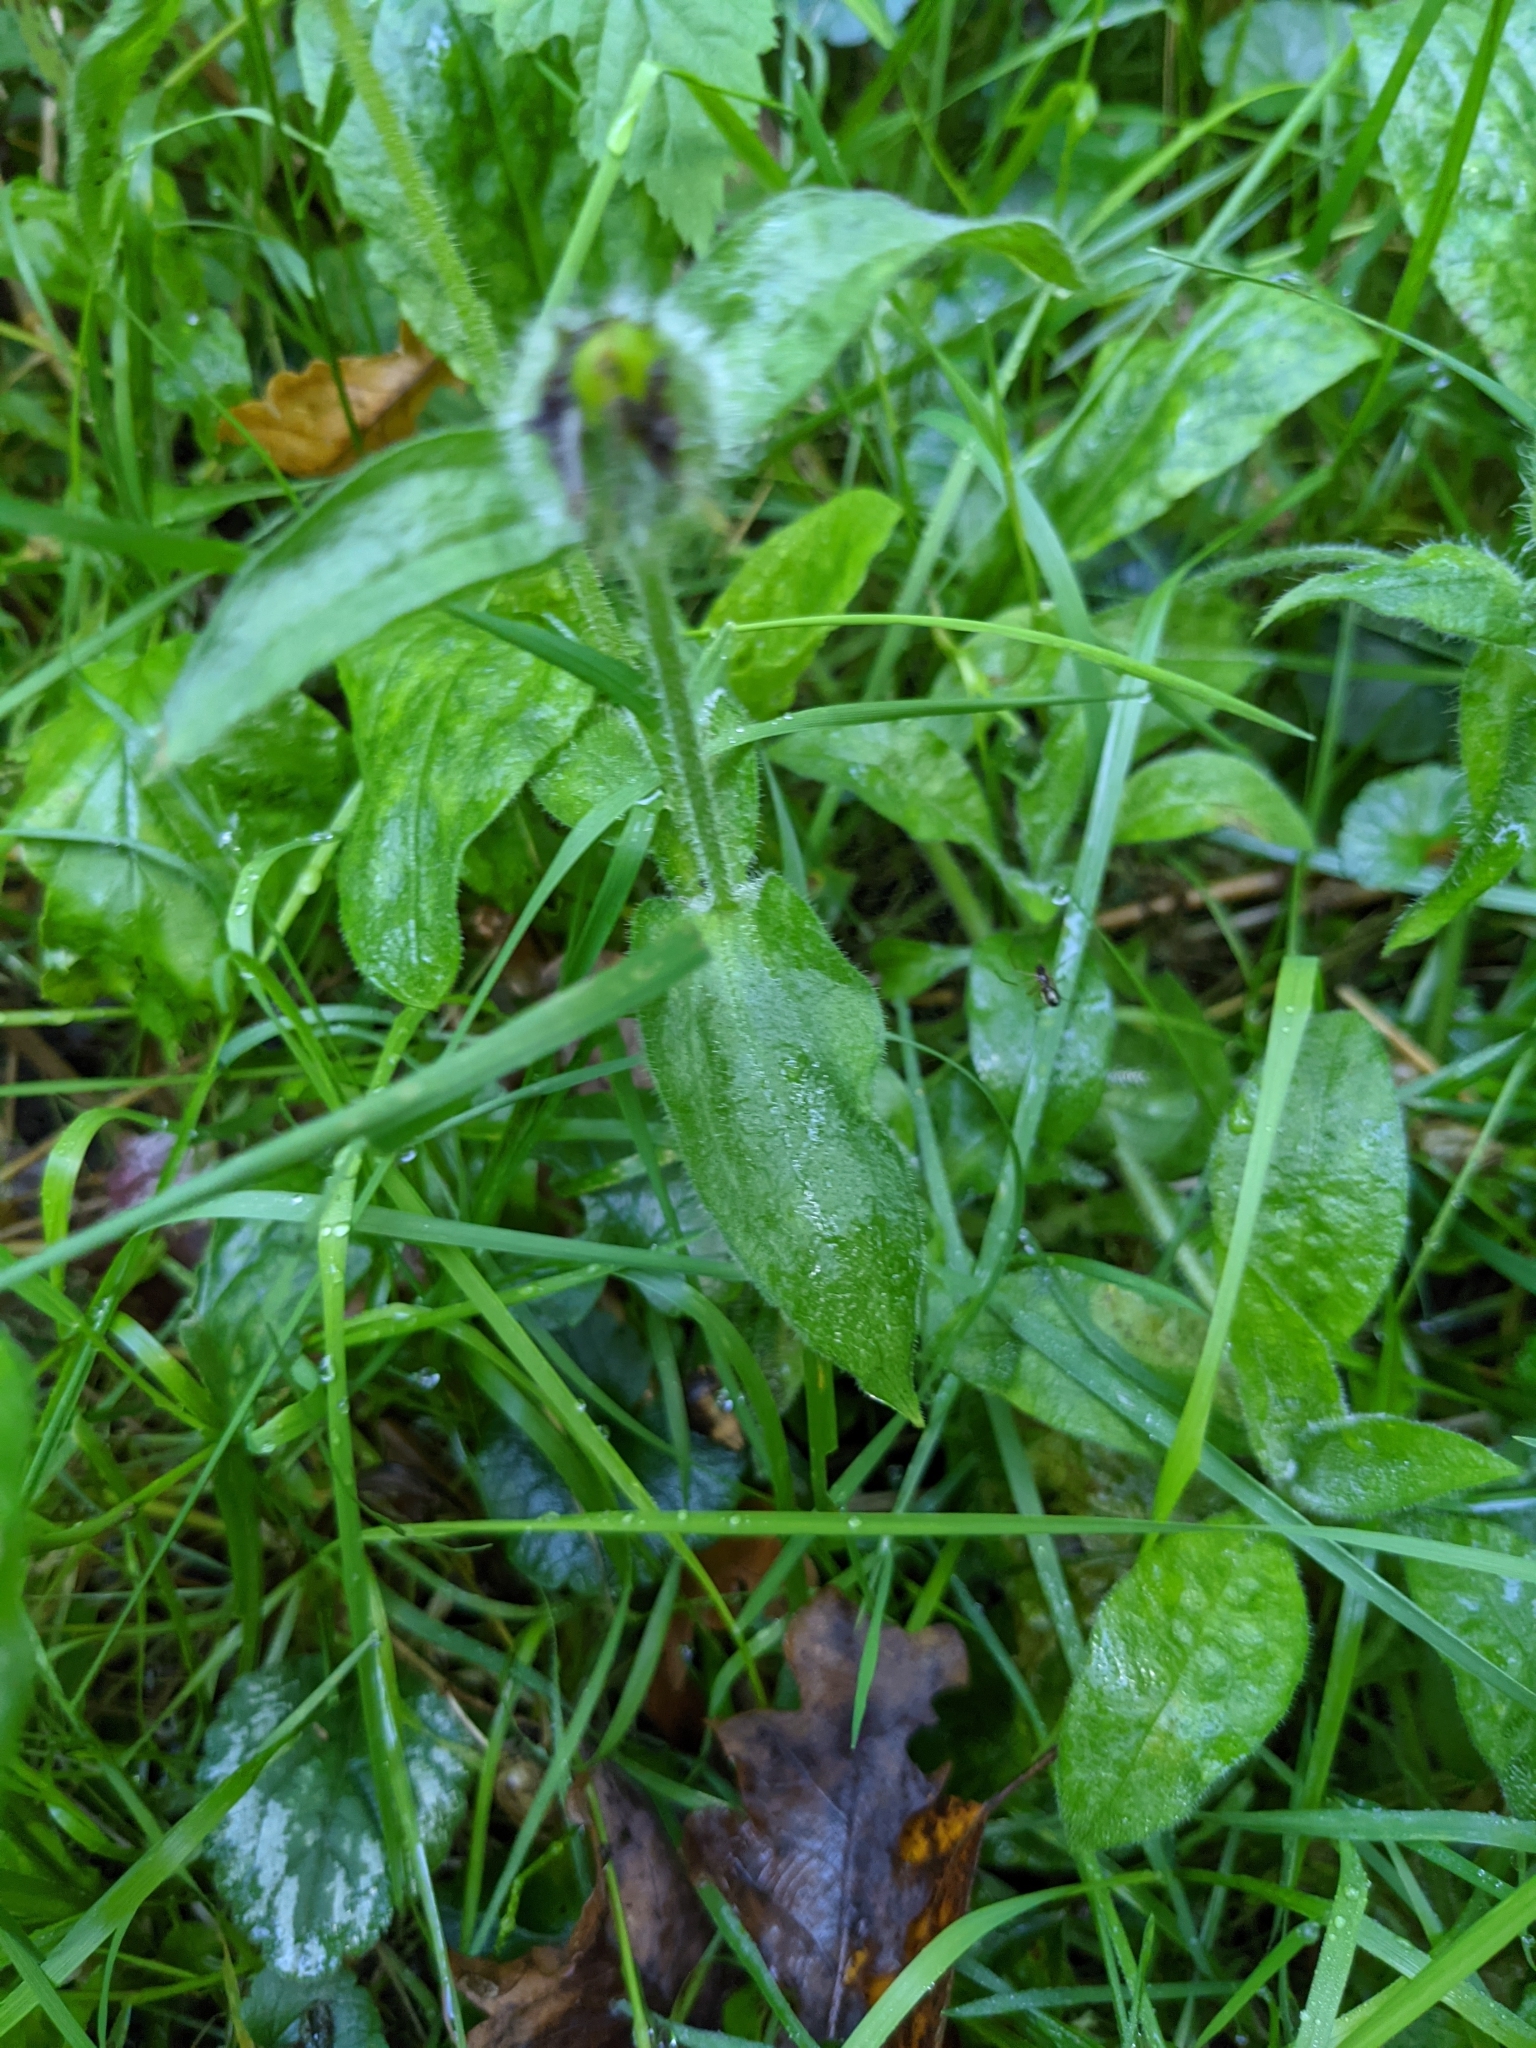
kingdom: Plantae
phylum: Tracheophyta
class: Magnoliopsida
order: Caryophyllales
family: Caryophyllaceae
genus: Silene
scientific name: Silene dioica
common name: Red campion
